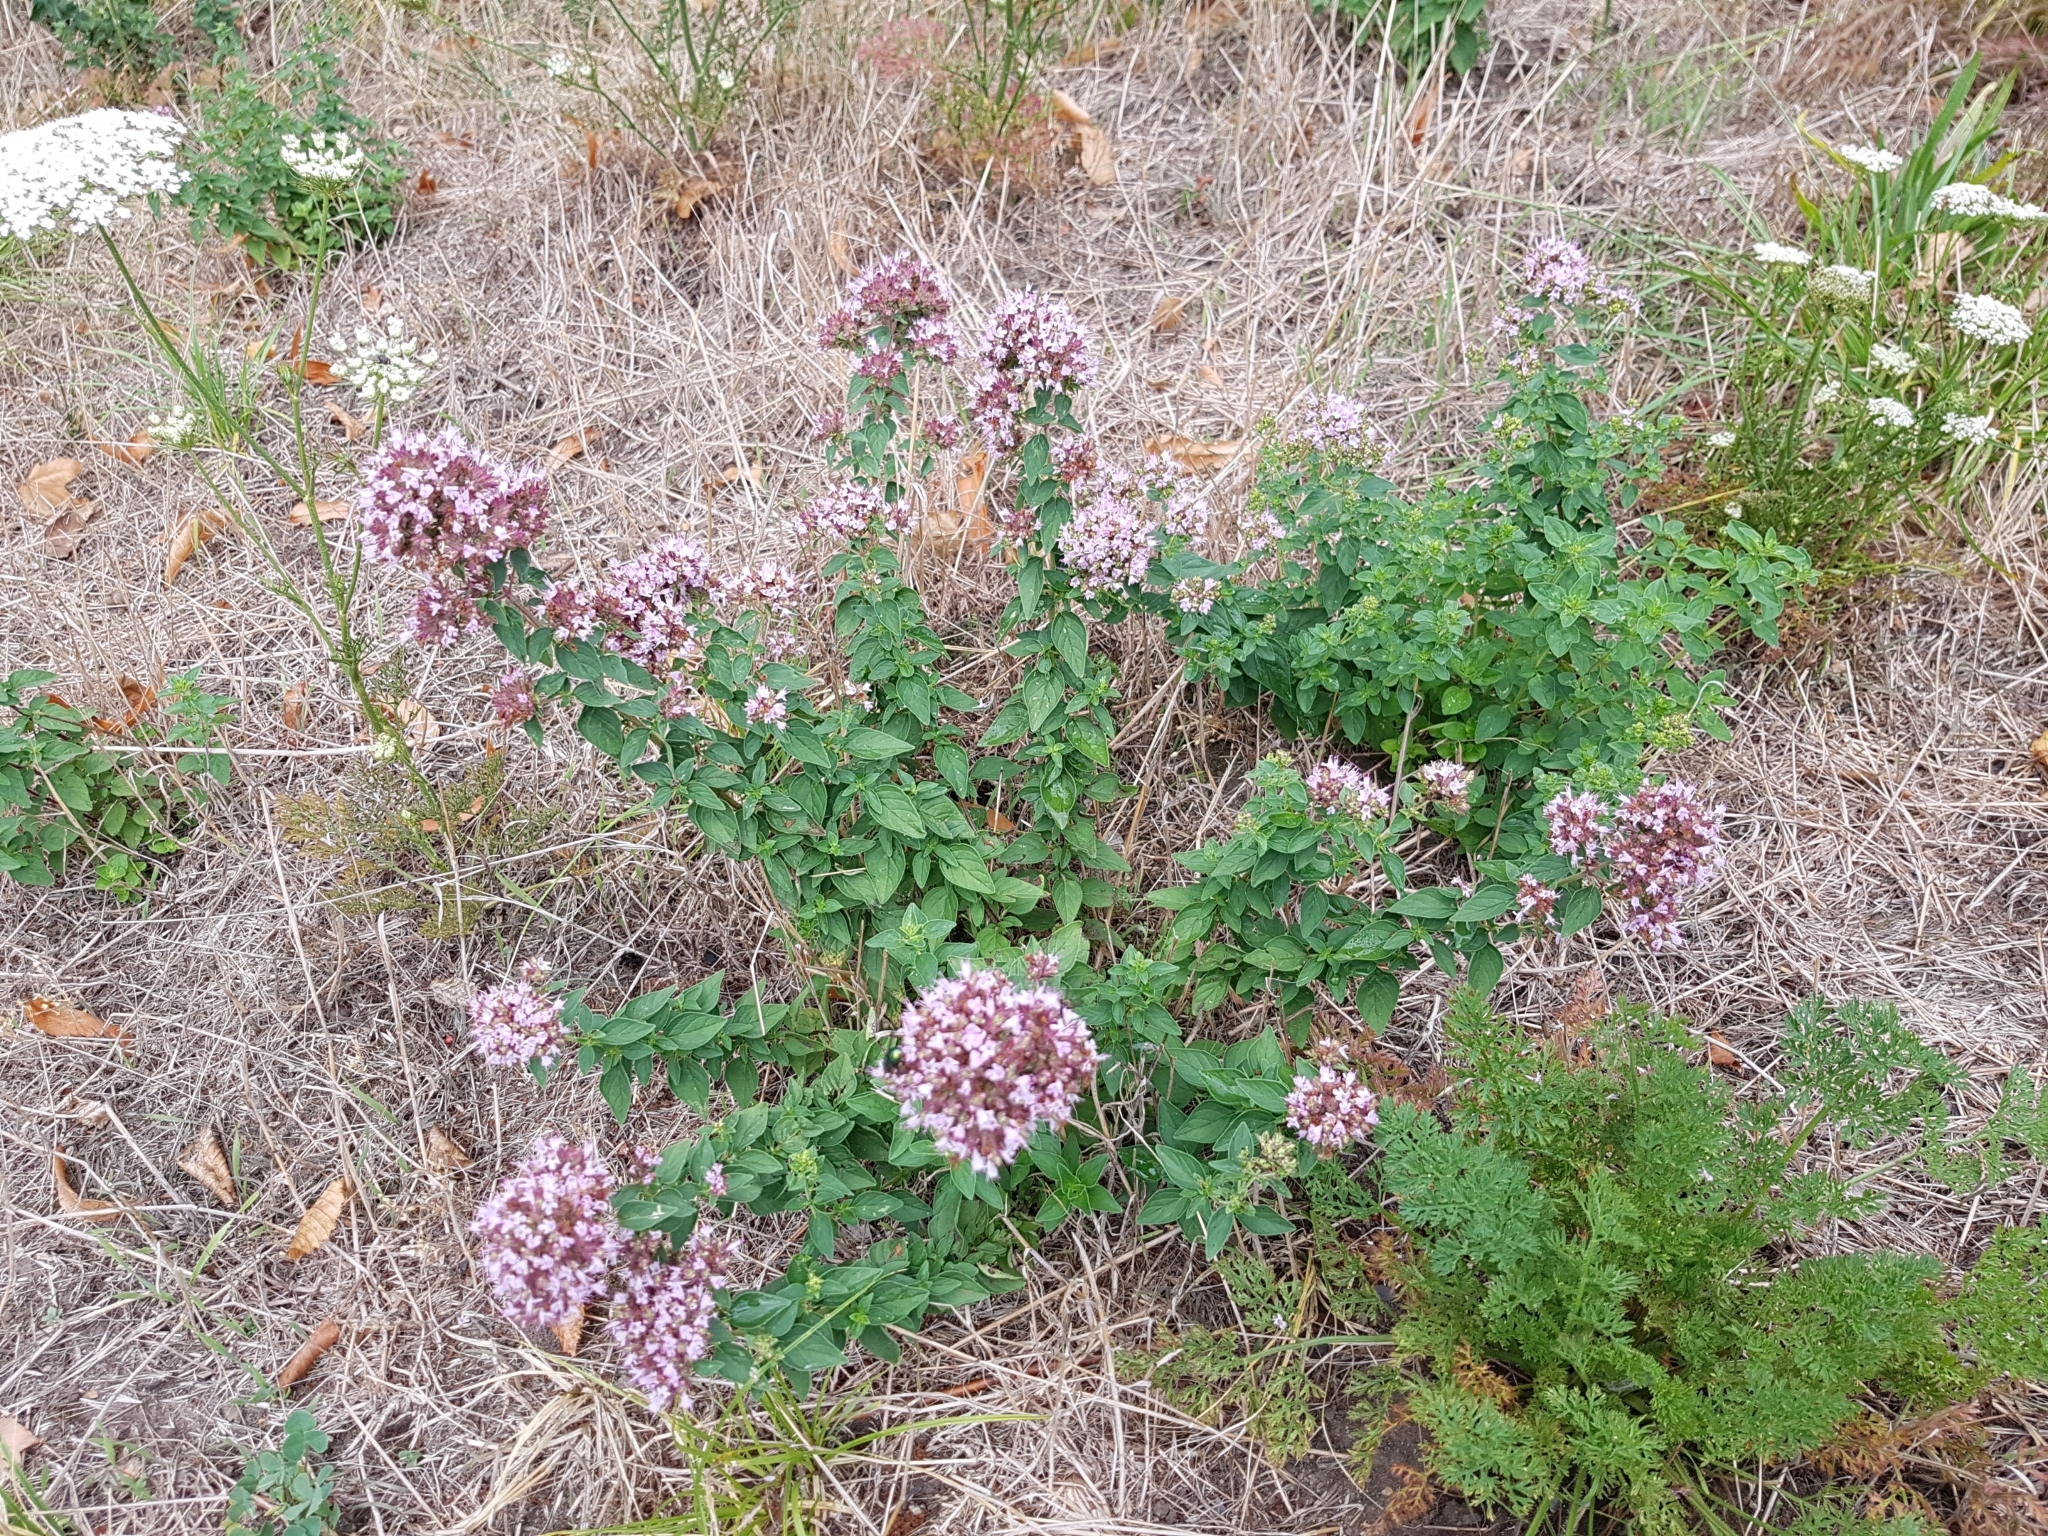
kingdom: Plantae
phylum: Tracheophyta
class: Magnoliopsida
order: Lamiales
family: Lamiaceae
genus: Origanum
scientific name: Origanum vulgare
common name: Wild marjoram
